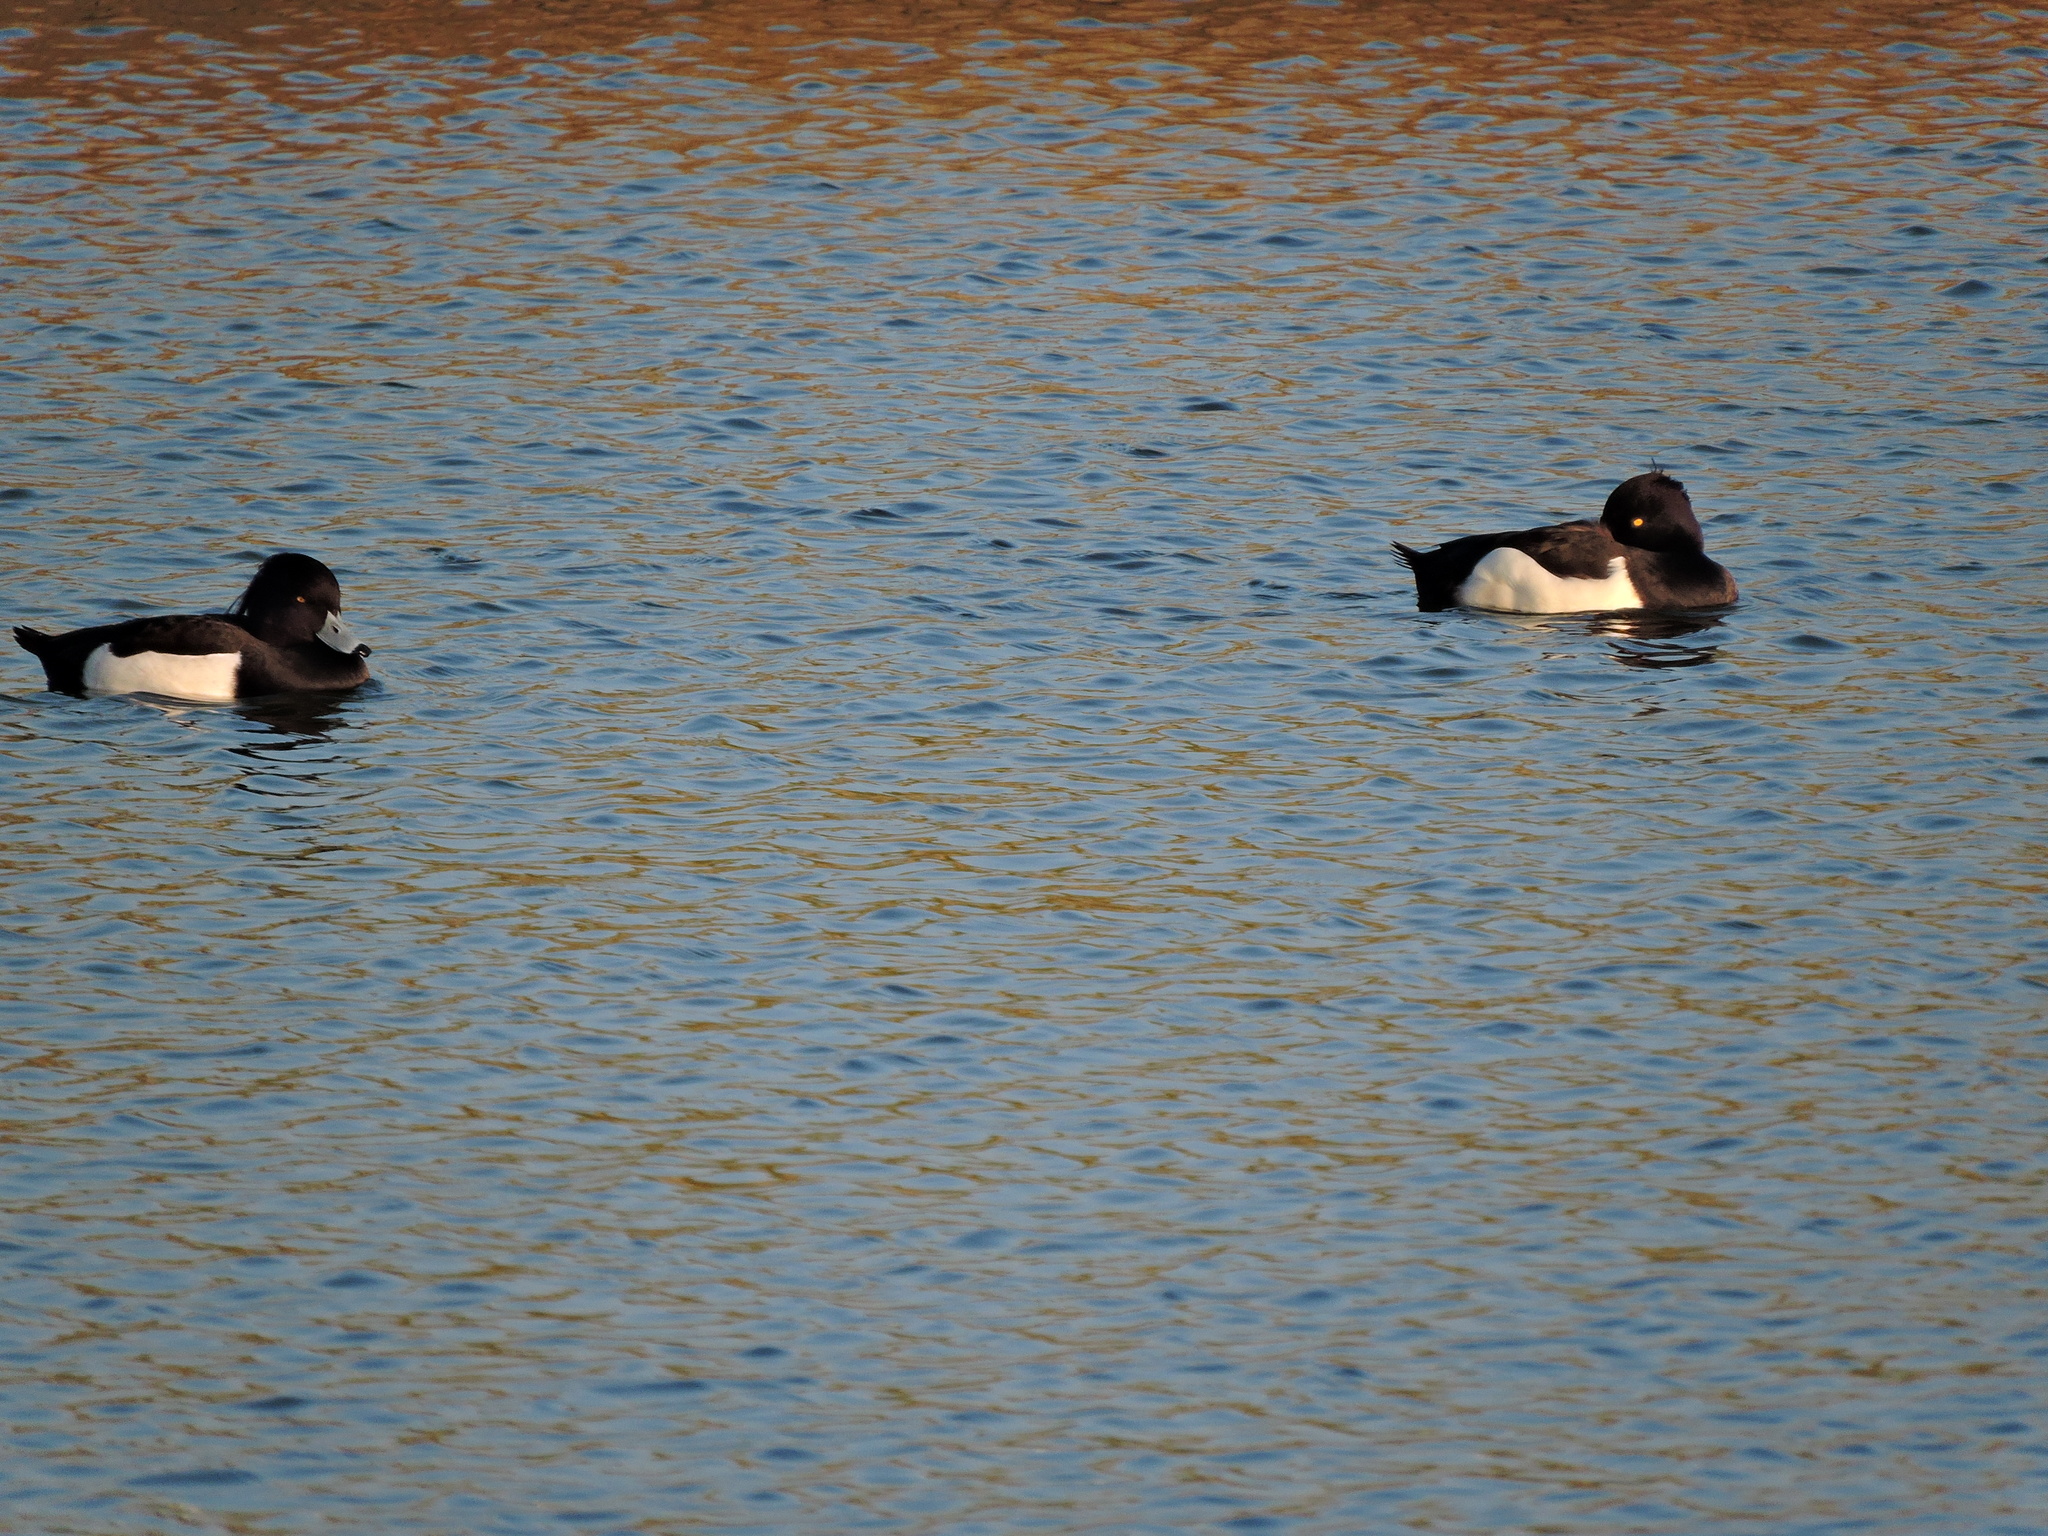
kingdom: Animalia
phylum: Chordata
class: Aves
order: Anseriformes
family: Anatidae
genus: Aythya
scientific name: Aythya fuligula
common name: Tufted duck
